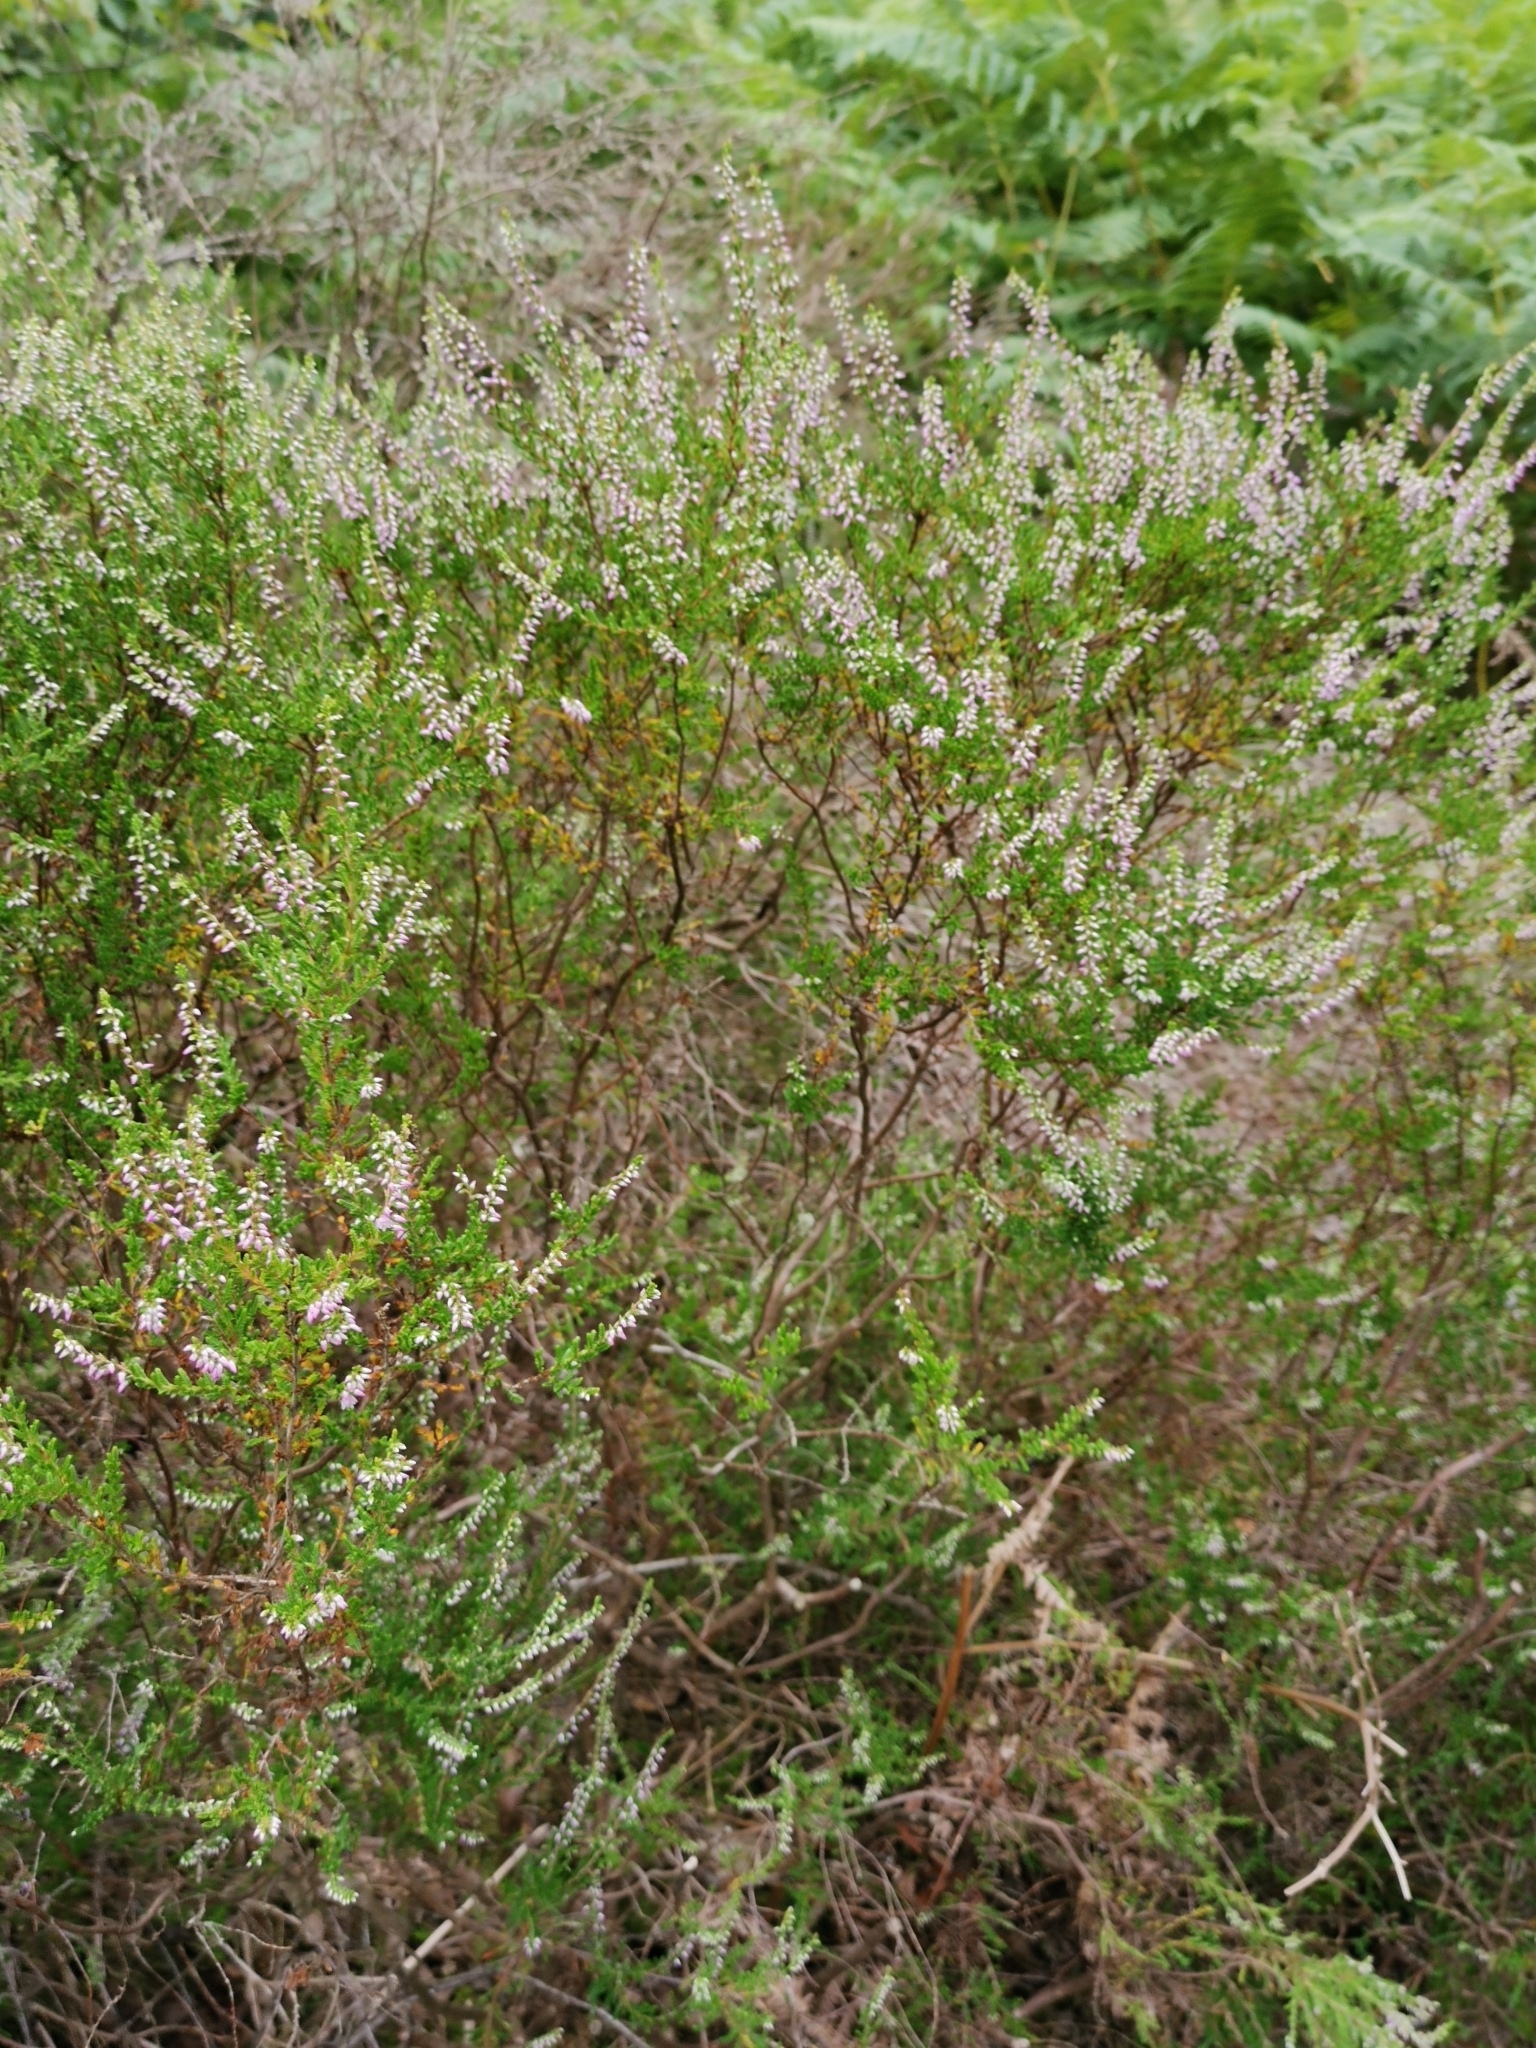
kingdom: Plantae
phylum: Tracheophyta
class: Magnoliopsida
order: Ericales
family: Ericaceae
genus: Calluna
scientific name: Calluna vulgaris
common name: Heather
